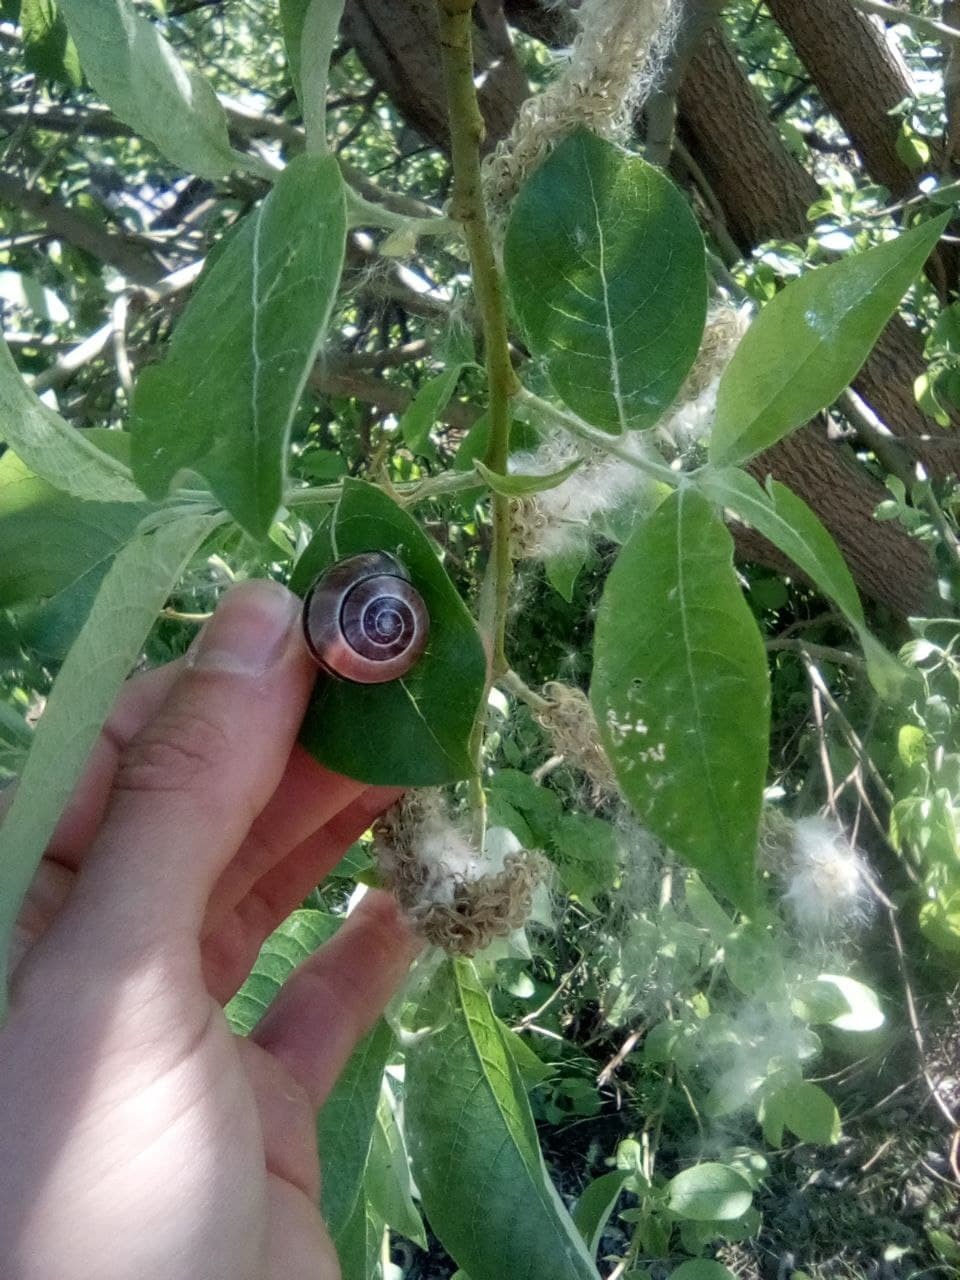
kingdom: Animalia
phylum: Mollusca
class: Gastropoda
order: Stylommatophora
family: Helicidae
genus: Cepaea
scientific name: Cepaea nemoralis
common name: Grovesnail
